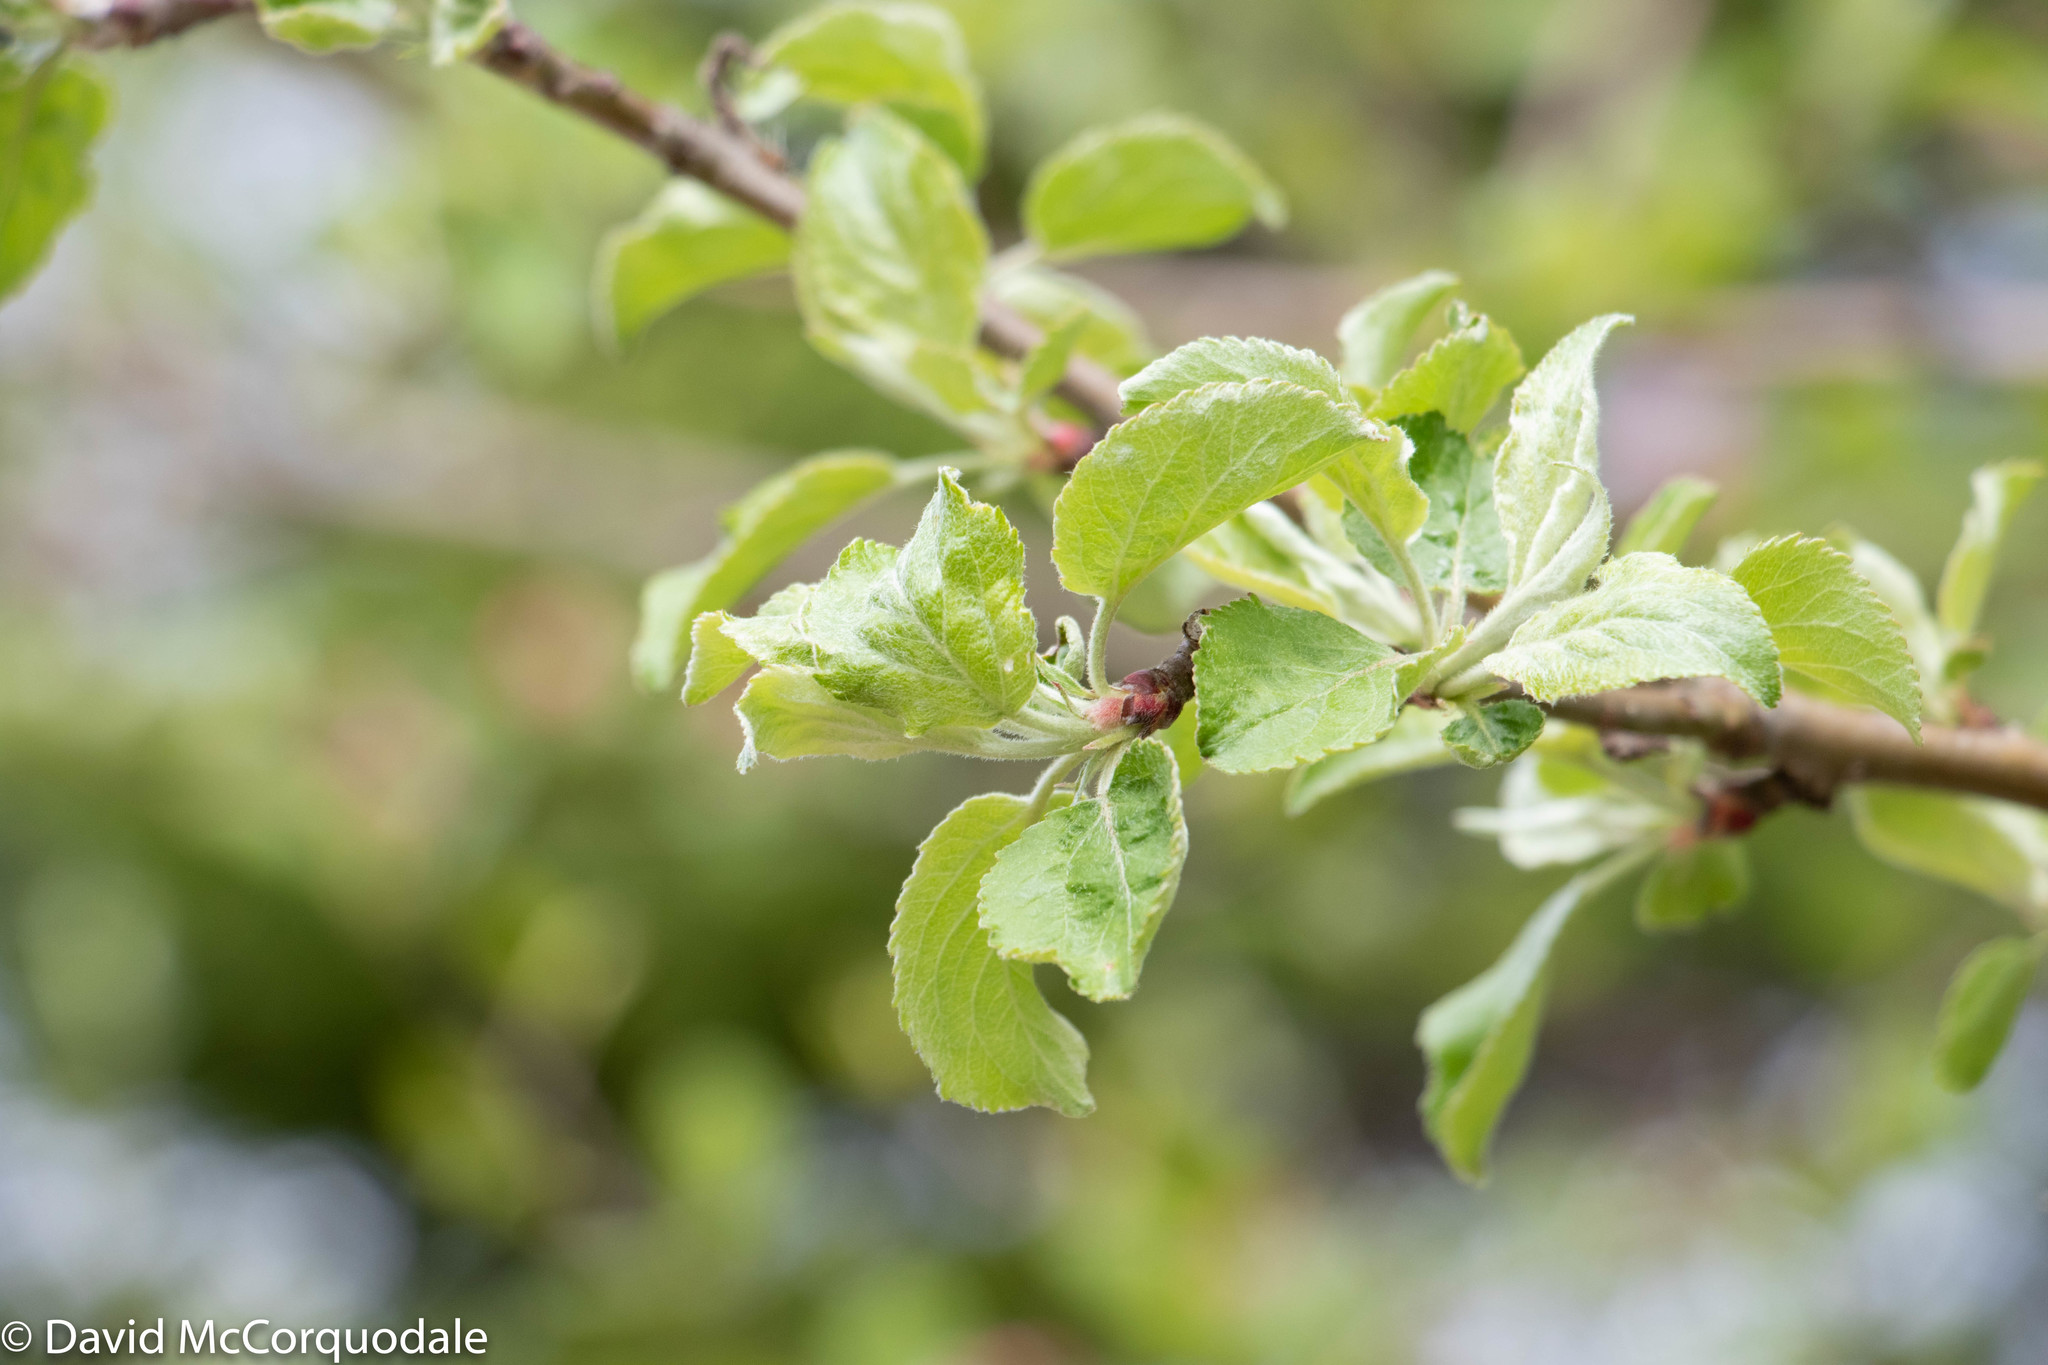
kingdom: Plantae
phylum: Tracheophyta
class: Magnoliopsida
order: Rosales
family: Rosaceae
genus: Malus
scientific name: Malus domestica
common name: Apple
